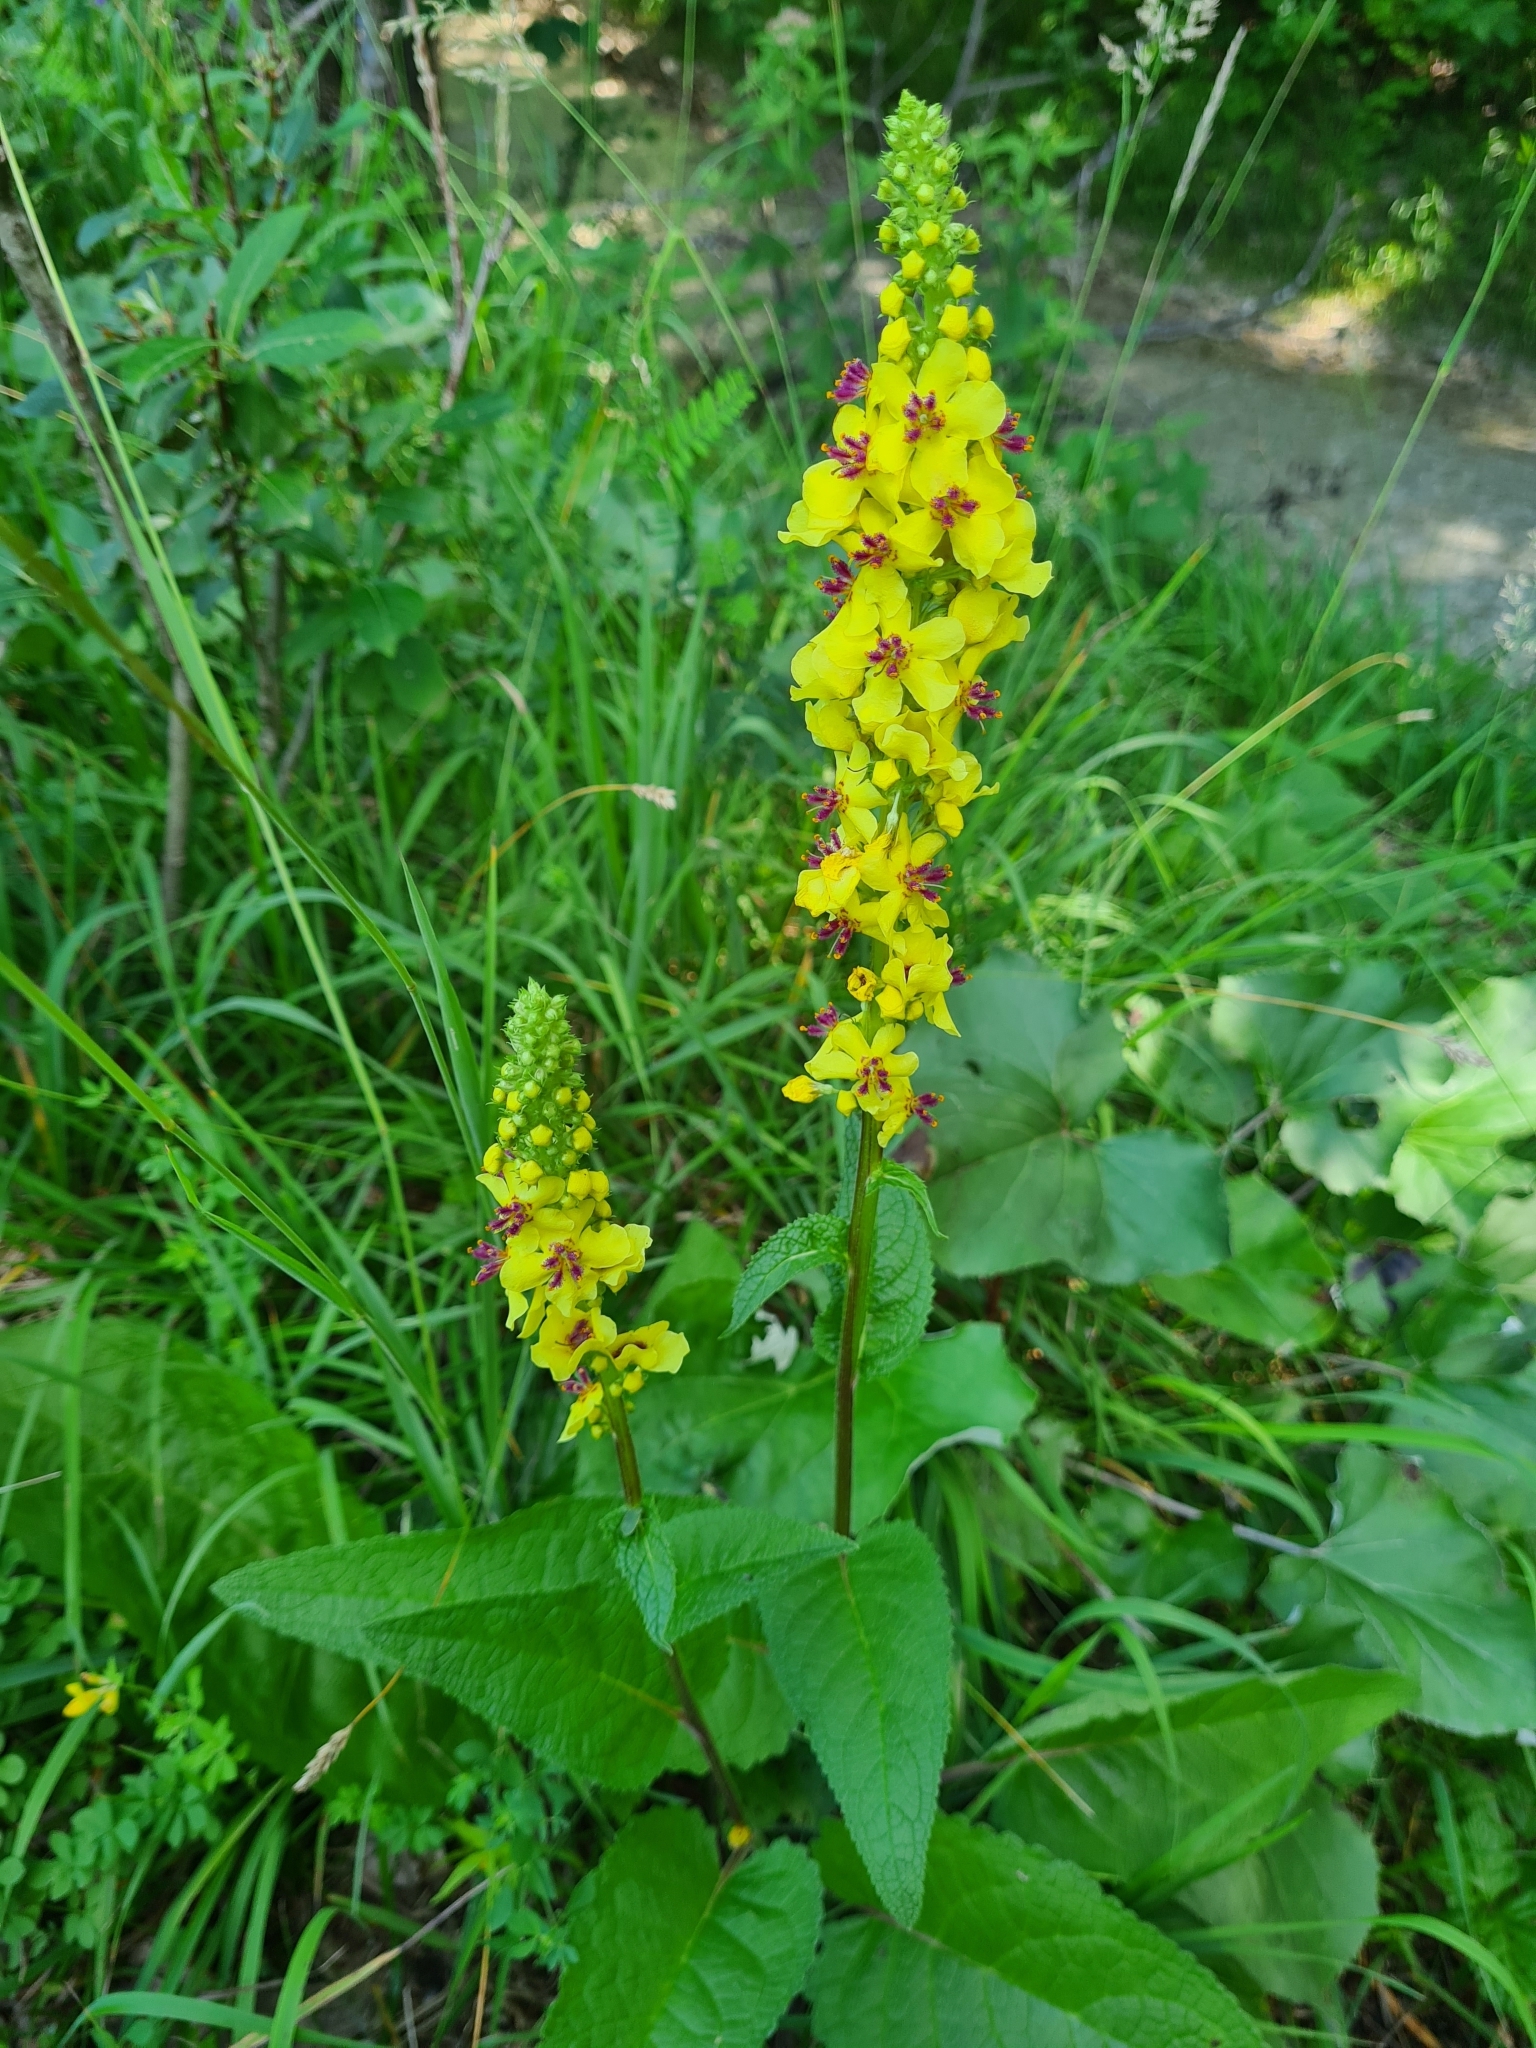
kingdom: Plantae
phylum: Tracheophyta
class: Magnoliopsida
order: Lamiales
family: Scrophulariaceae
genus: Verbascum
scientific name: Verbascum nigrum
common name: Dark mullein
